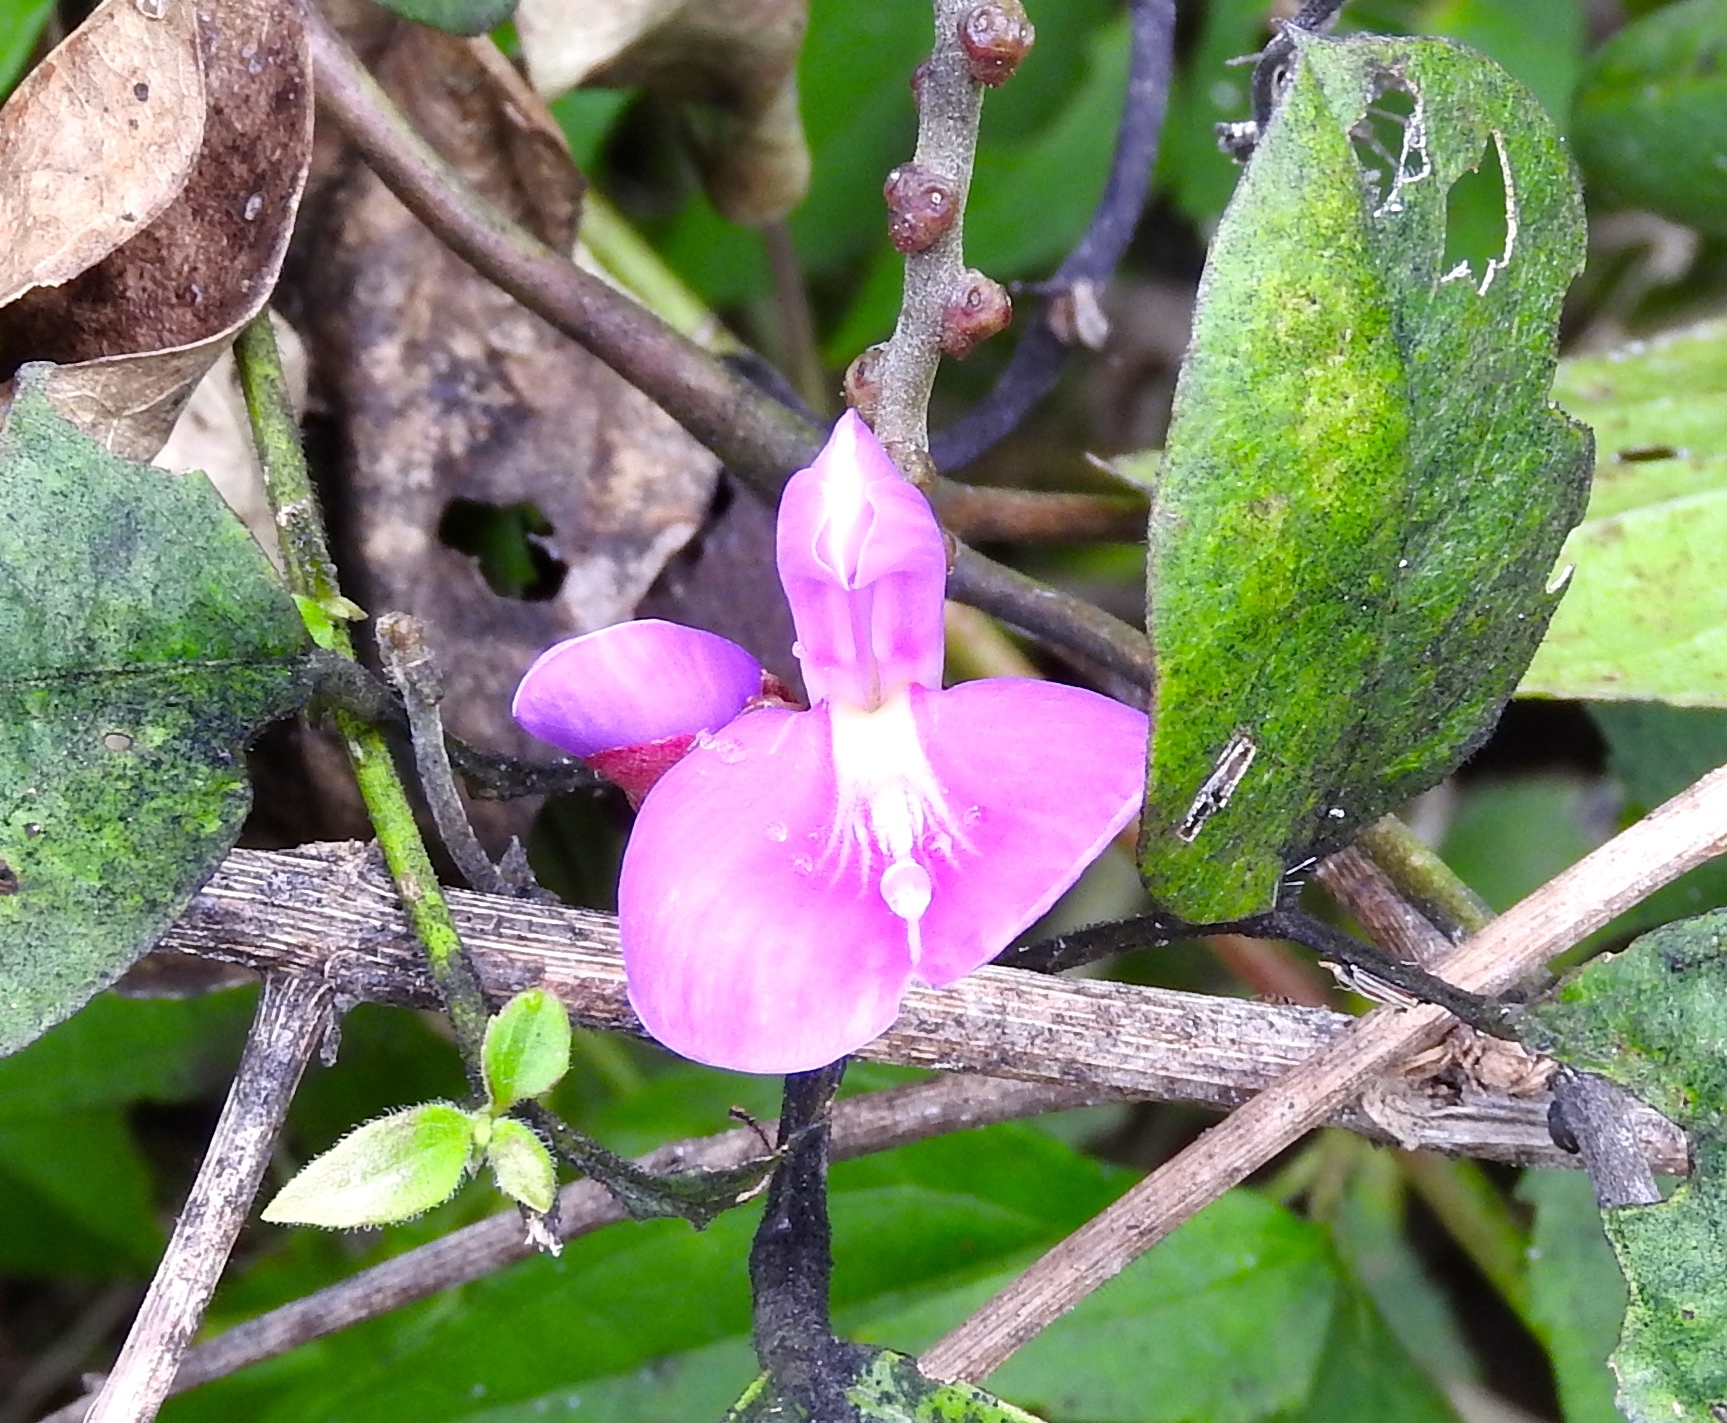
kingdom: Plantae
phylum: Tracheophyta
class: Magnoliopsida
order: Fabales
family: Fabaceae
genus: Canavalia
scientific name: Canavalia rosea
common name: Beach-bean
